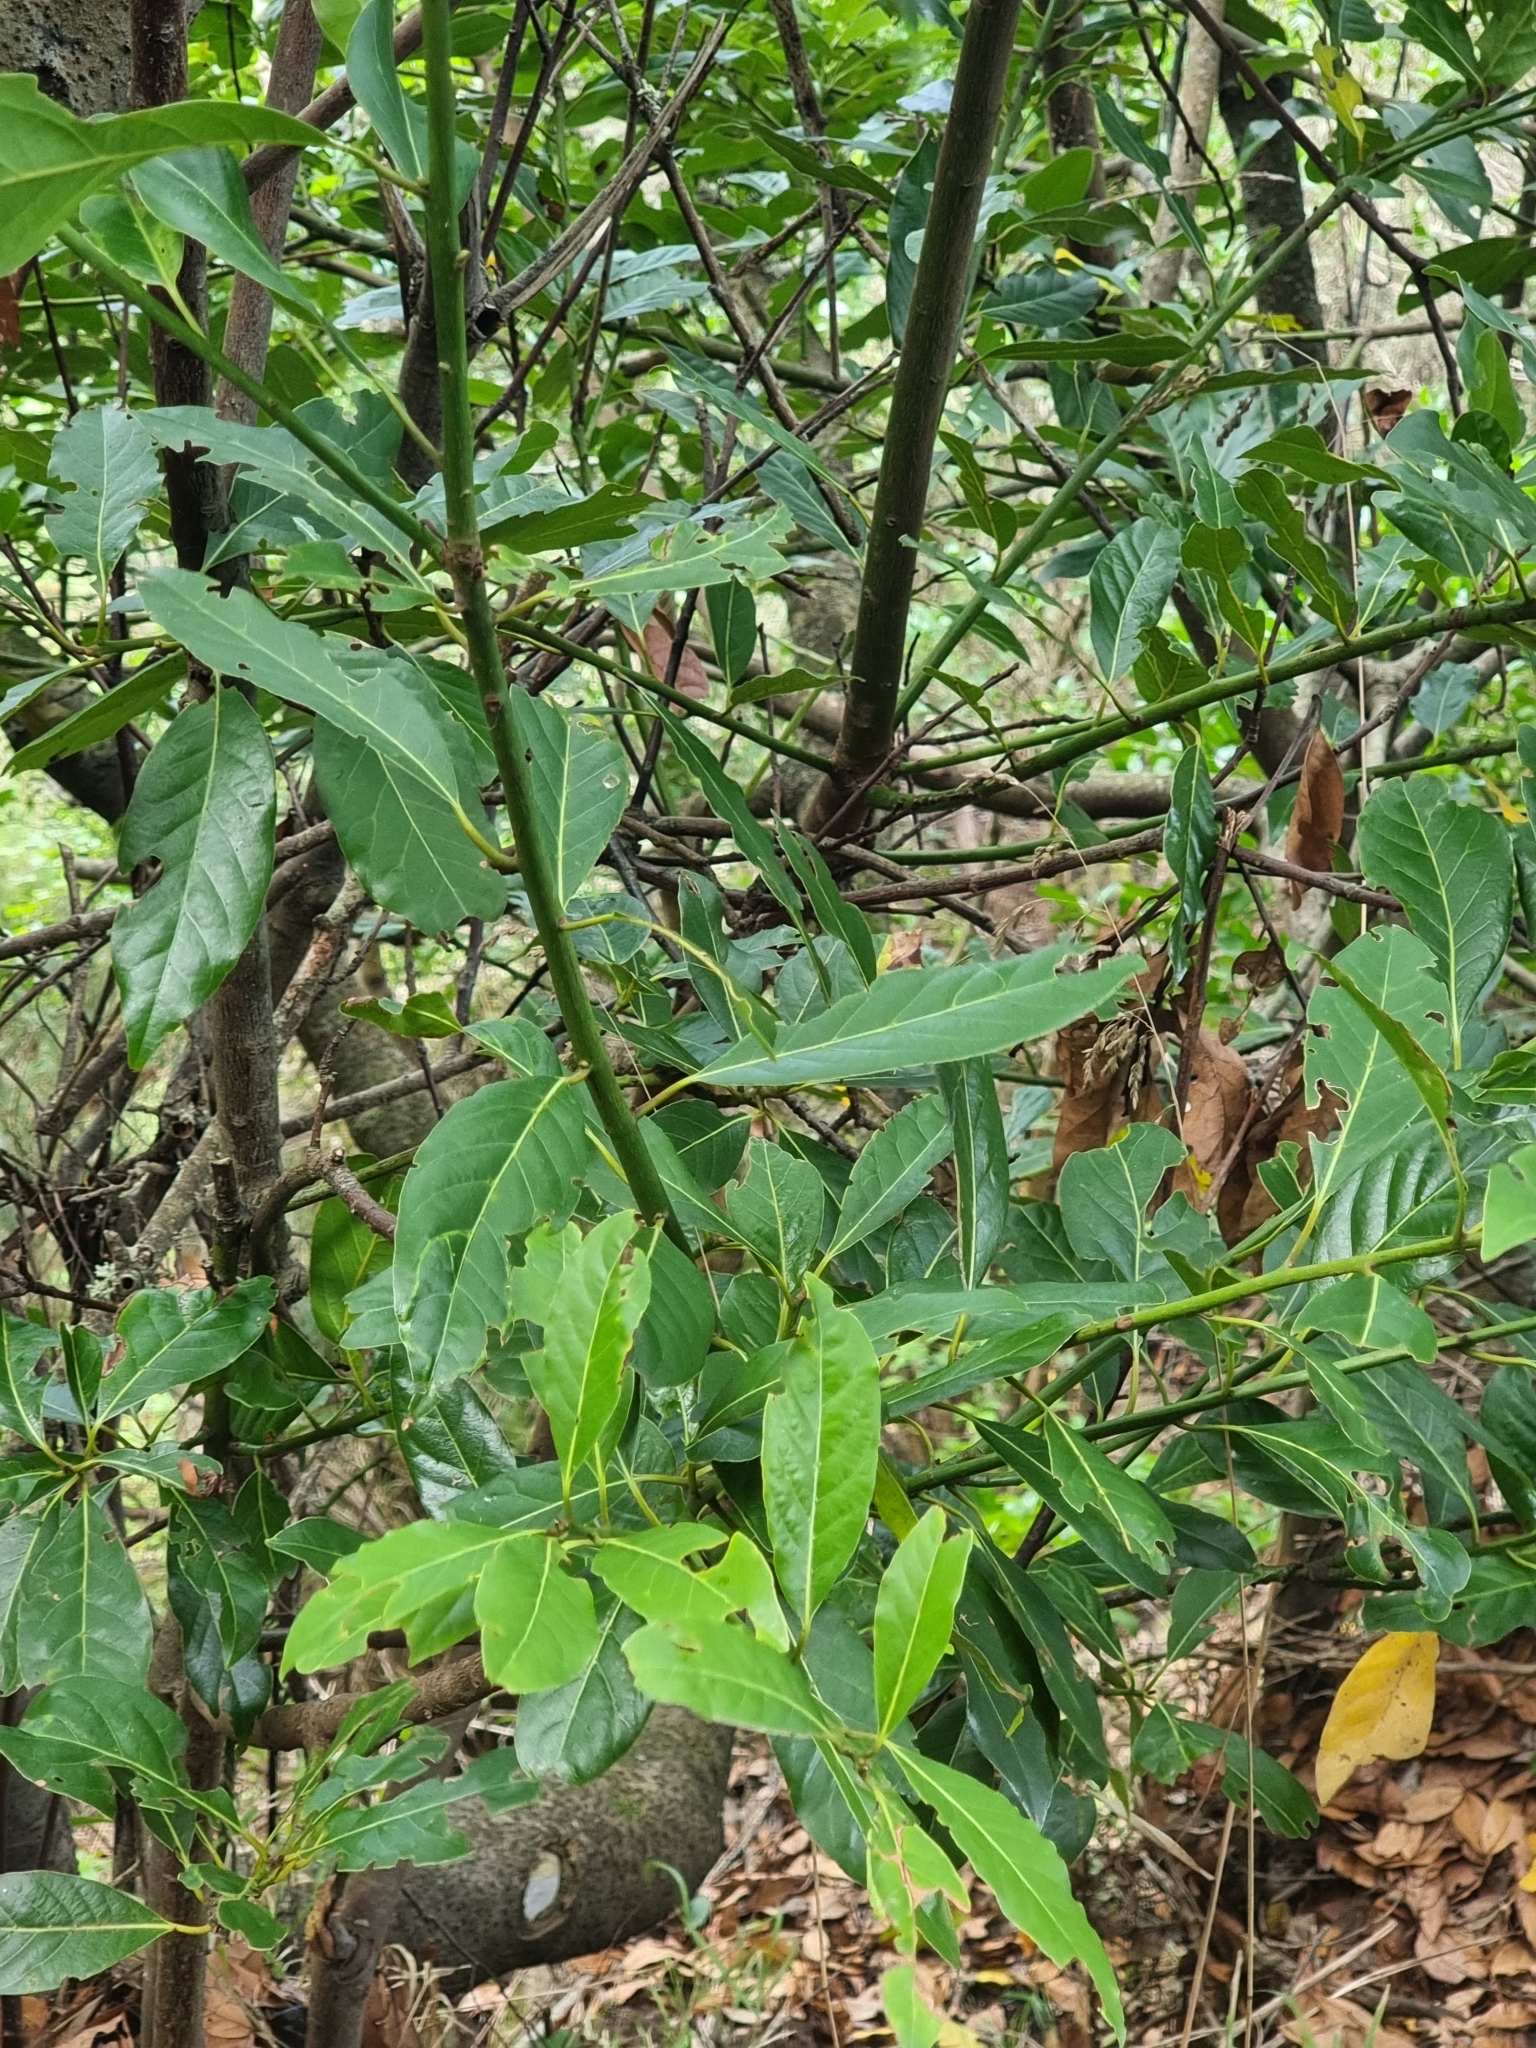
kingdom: Plantae
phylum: Tracheophyta
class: Magnoliopsida
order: Laurales
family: Lauraceae
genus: Laurus
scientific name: Laurus novocanariensis
